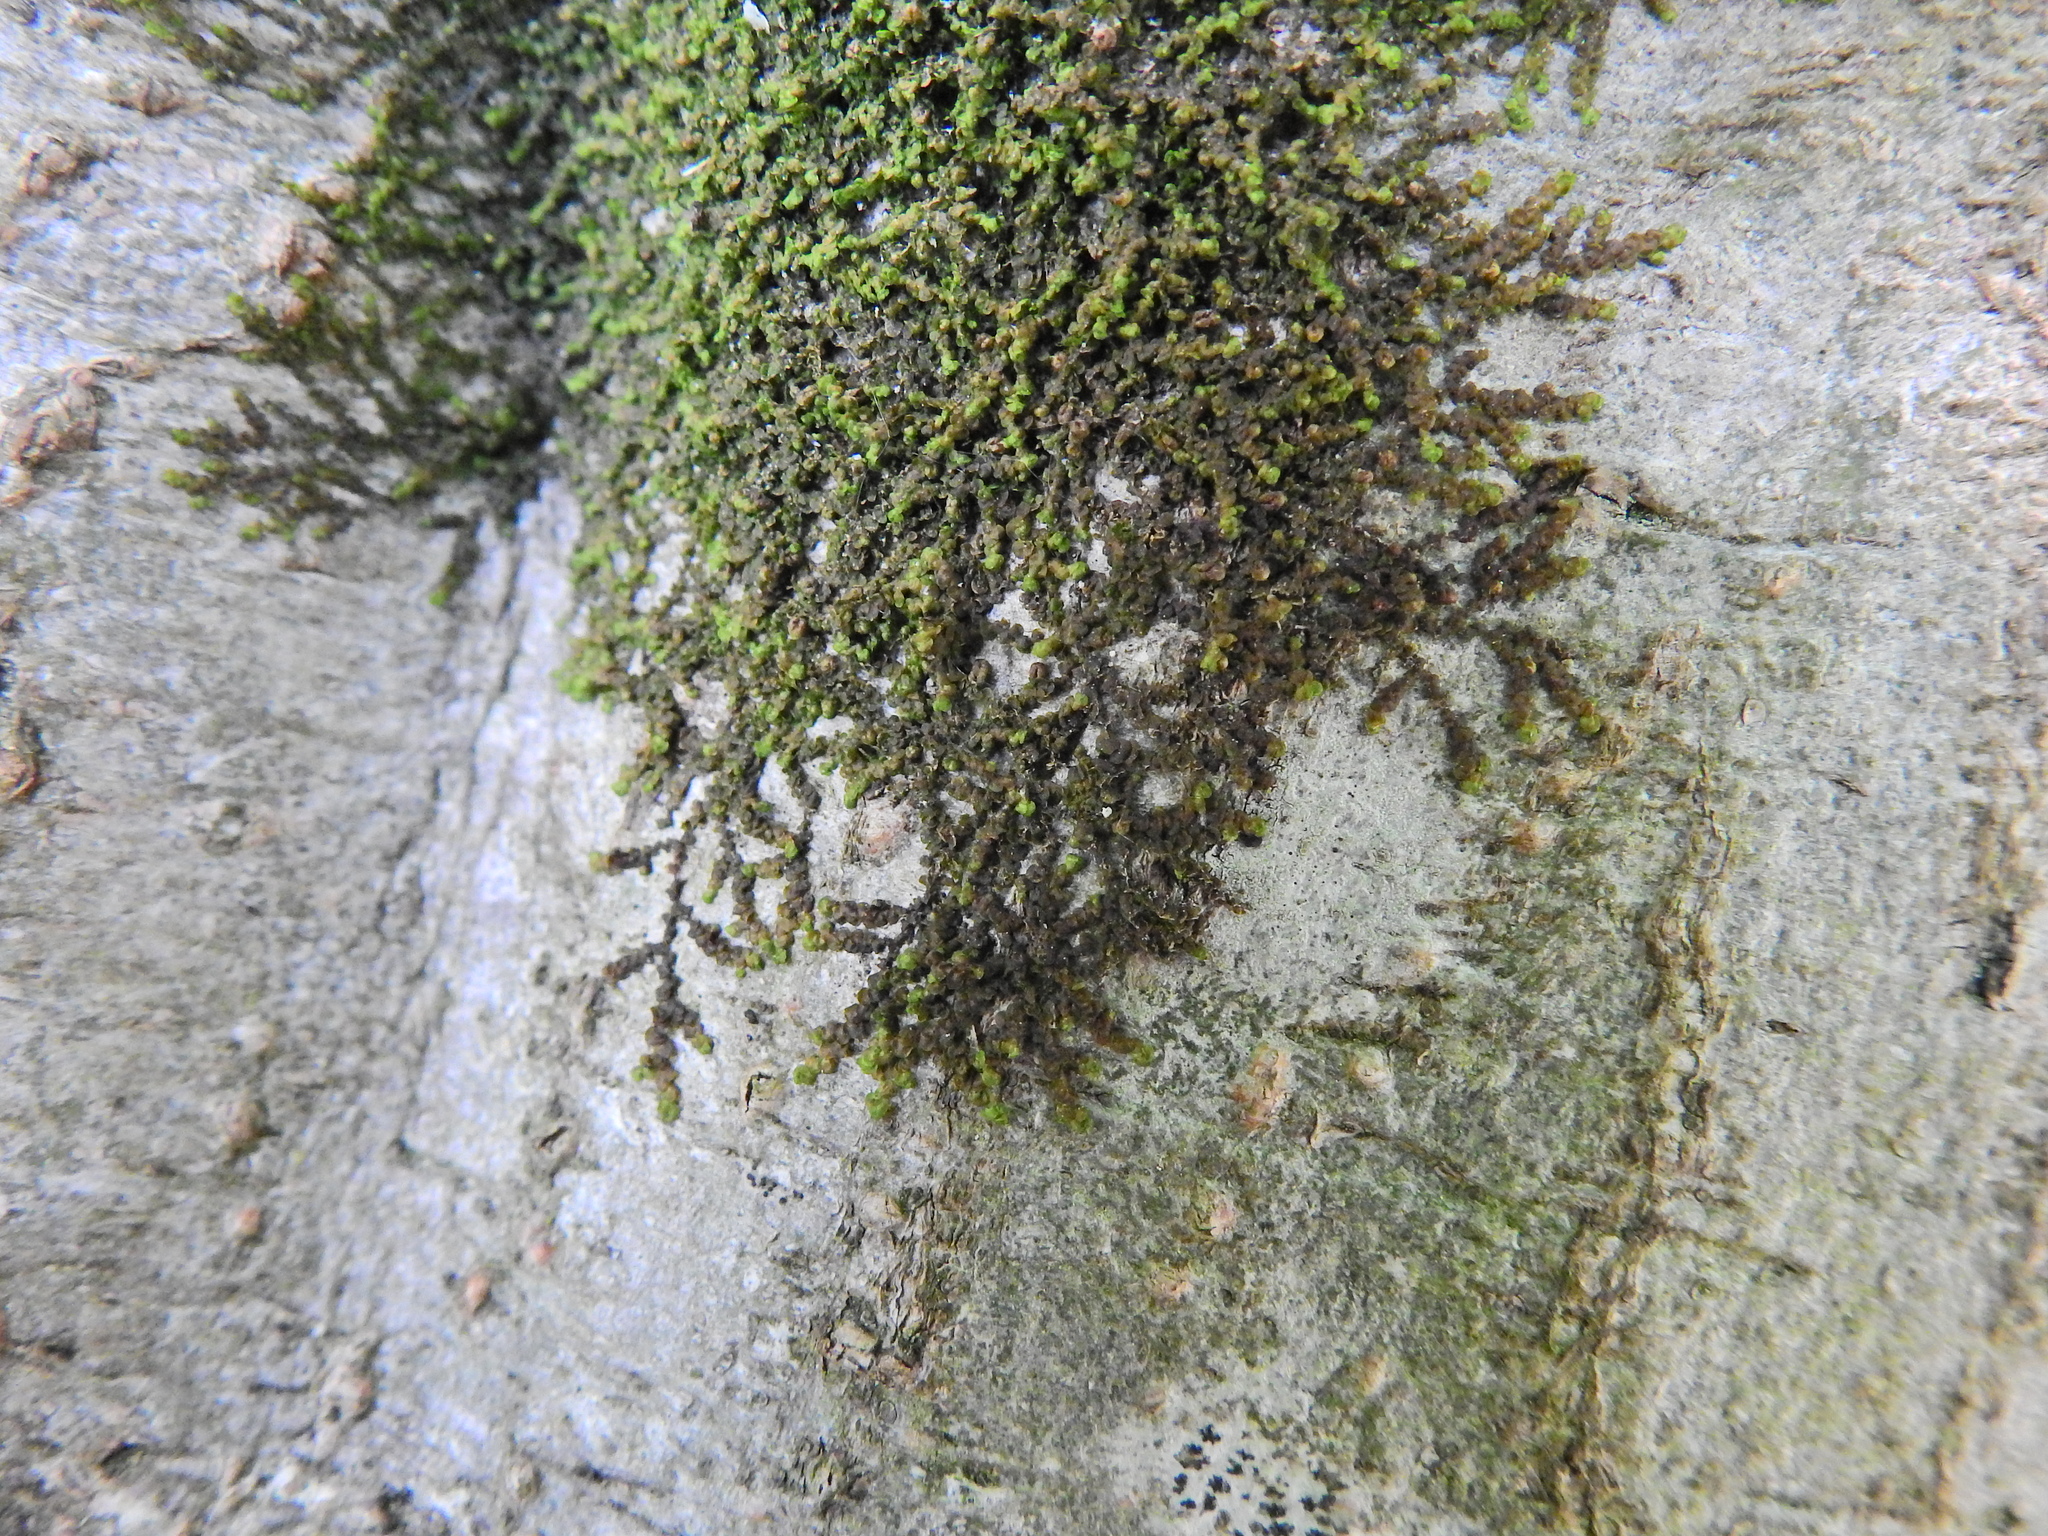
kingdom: Plantae
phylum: Marchantiophyta
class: Jungermanniopsida
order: Porellales
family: Frullaniaceae
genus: Frullania
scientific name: Frullania dilatata
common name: Dilated scalewort
